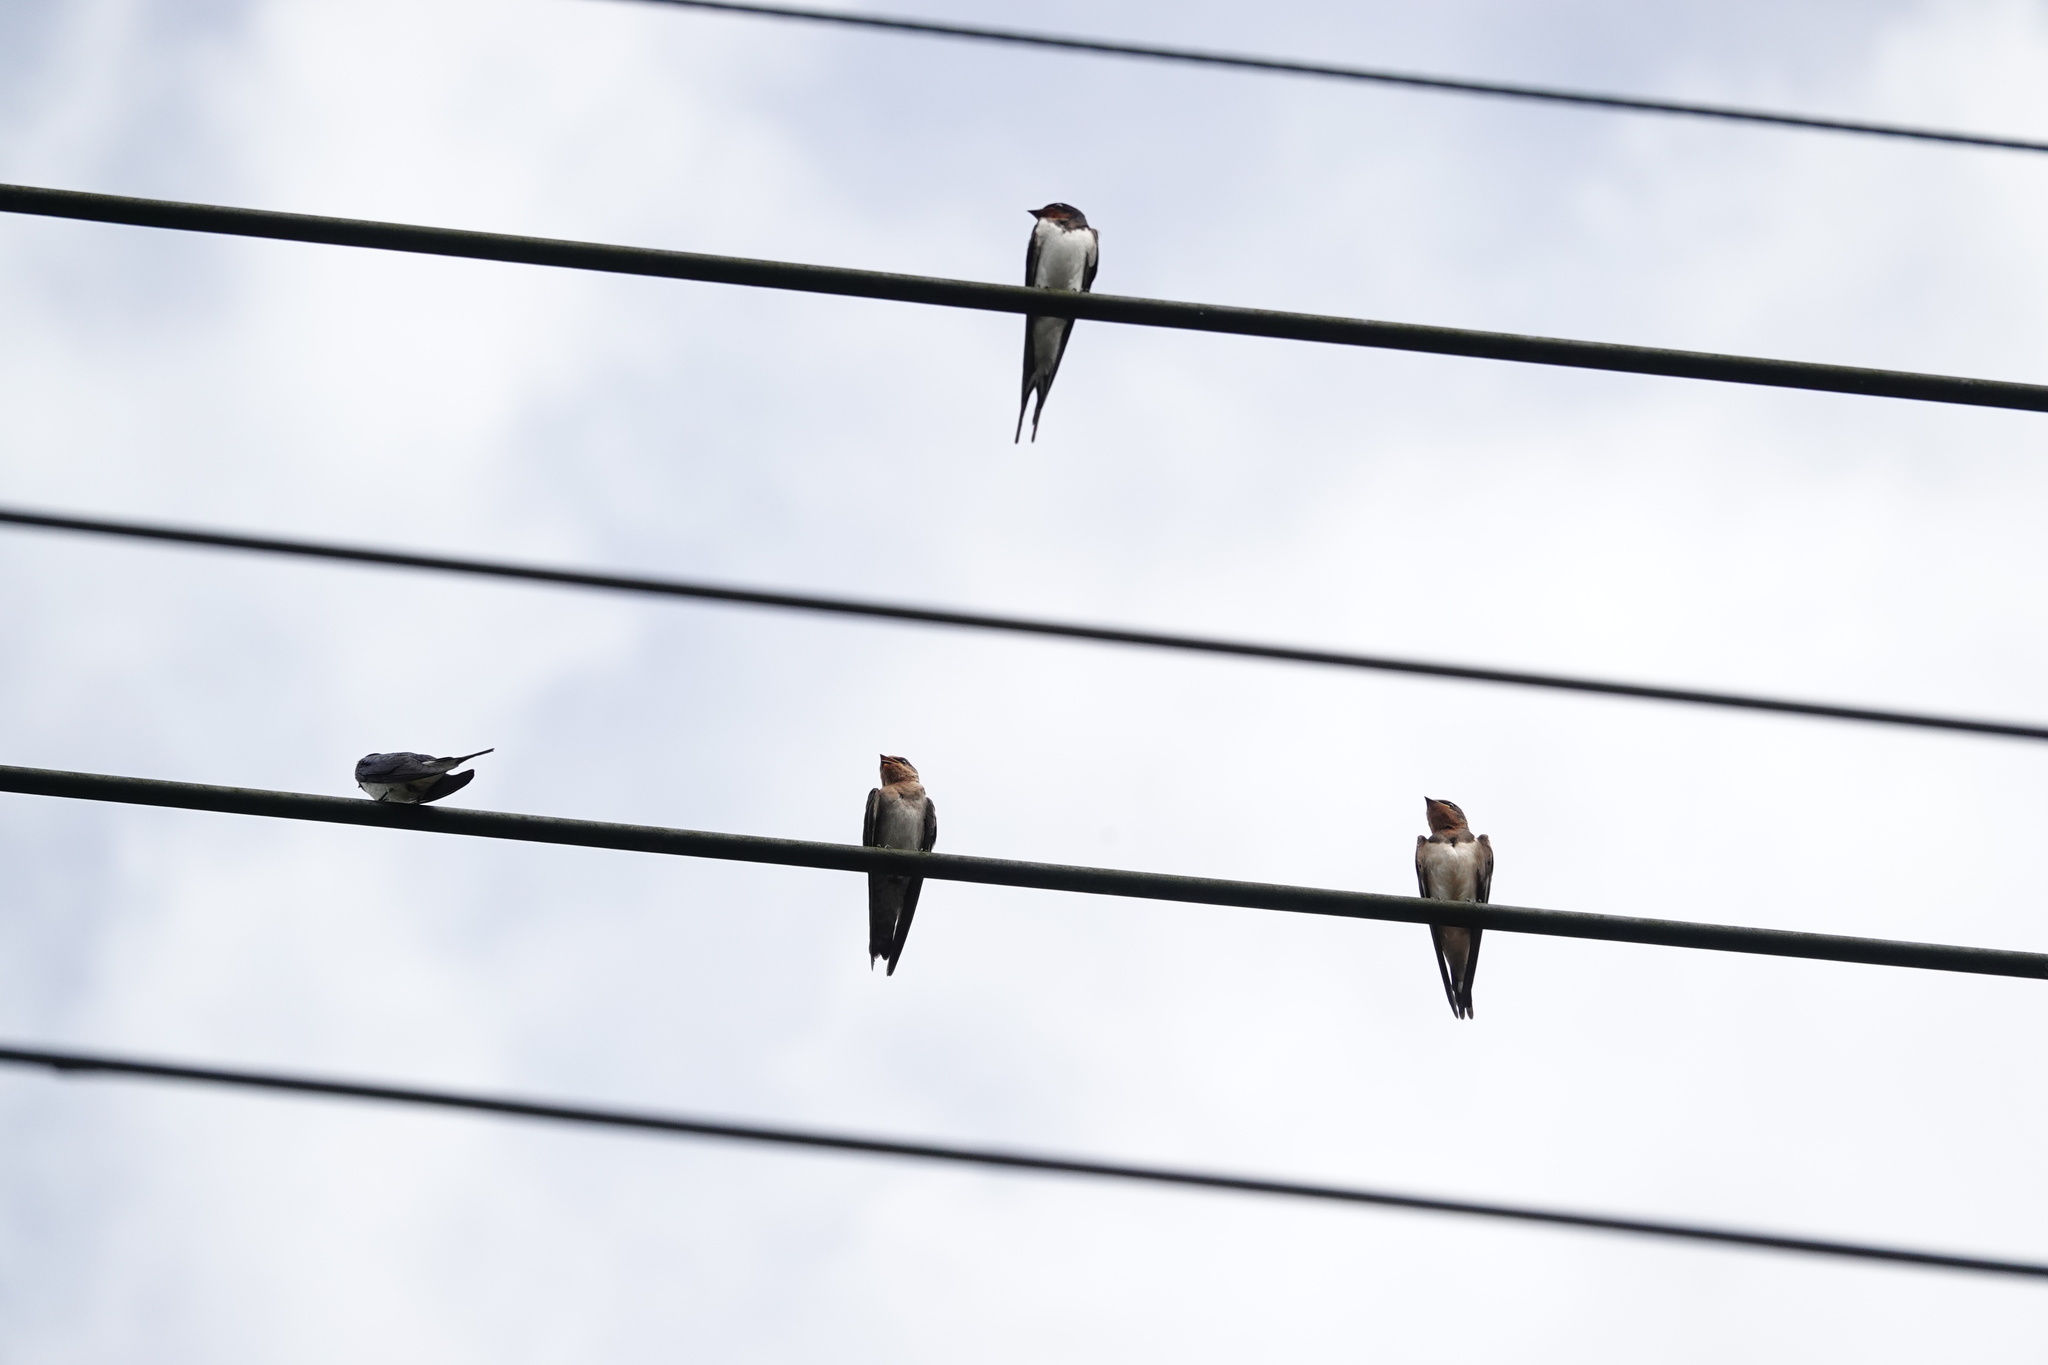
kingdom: Animalia
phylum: Chordata
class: Aves
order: Passeriformes
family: Hirundinidae
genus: Hirundo
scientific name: Hirundo tahitica
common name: Pacific swallow
